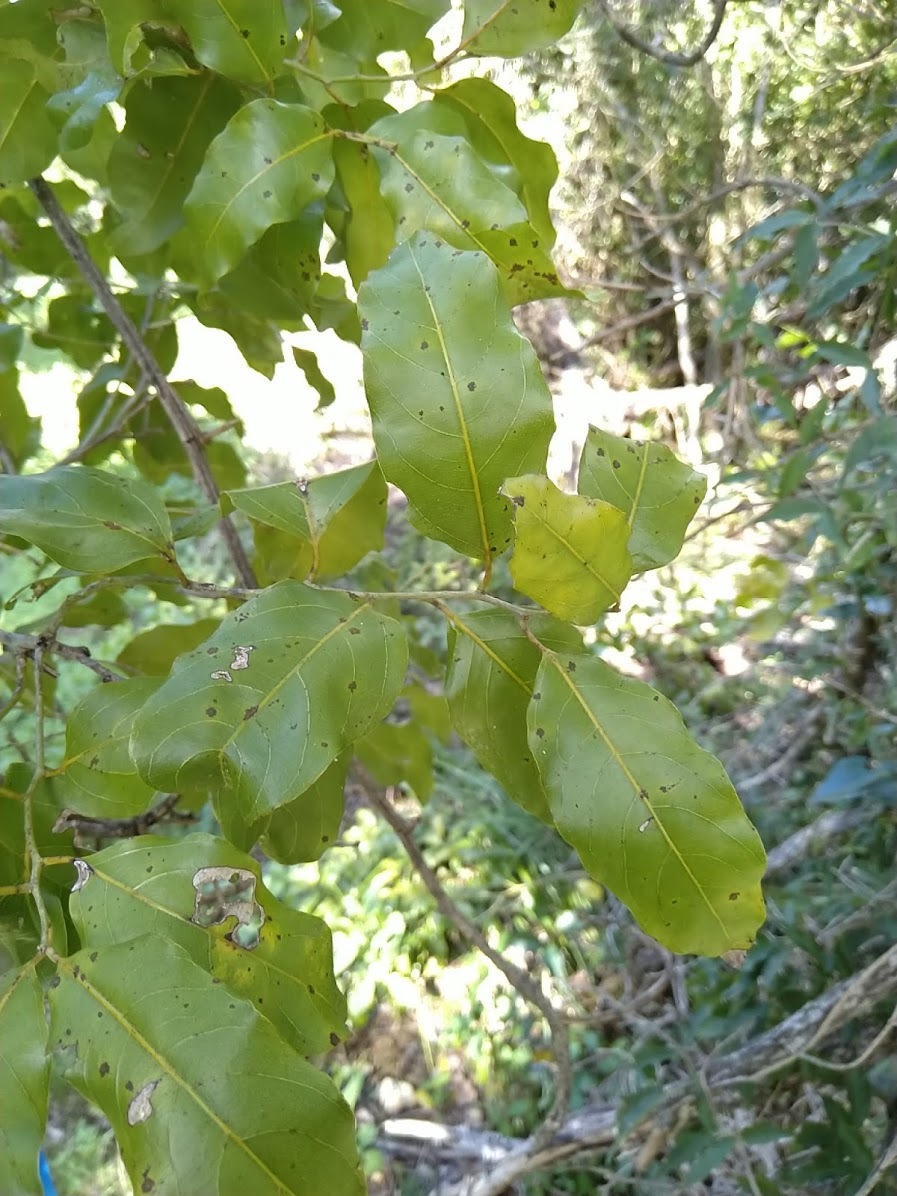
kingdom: Plantae
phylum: Tracheophyta
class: Magnoliopsida
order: Rosales
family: Rhamnaceae
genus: Ventilago
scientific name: Ventilago pubiflora
